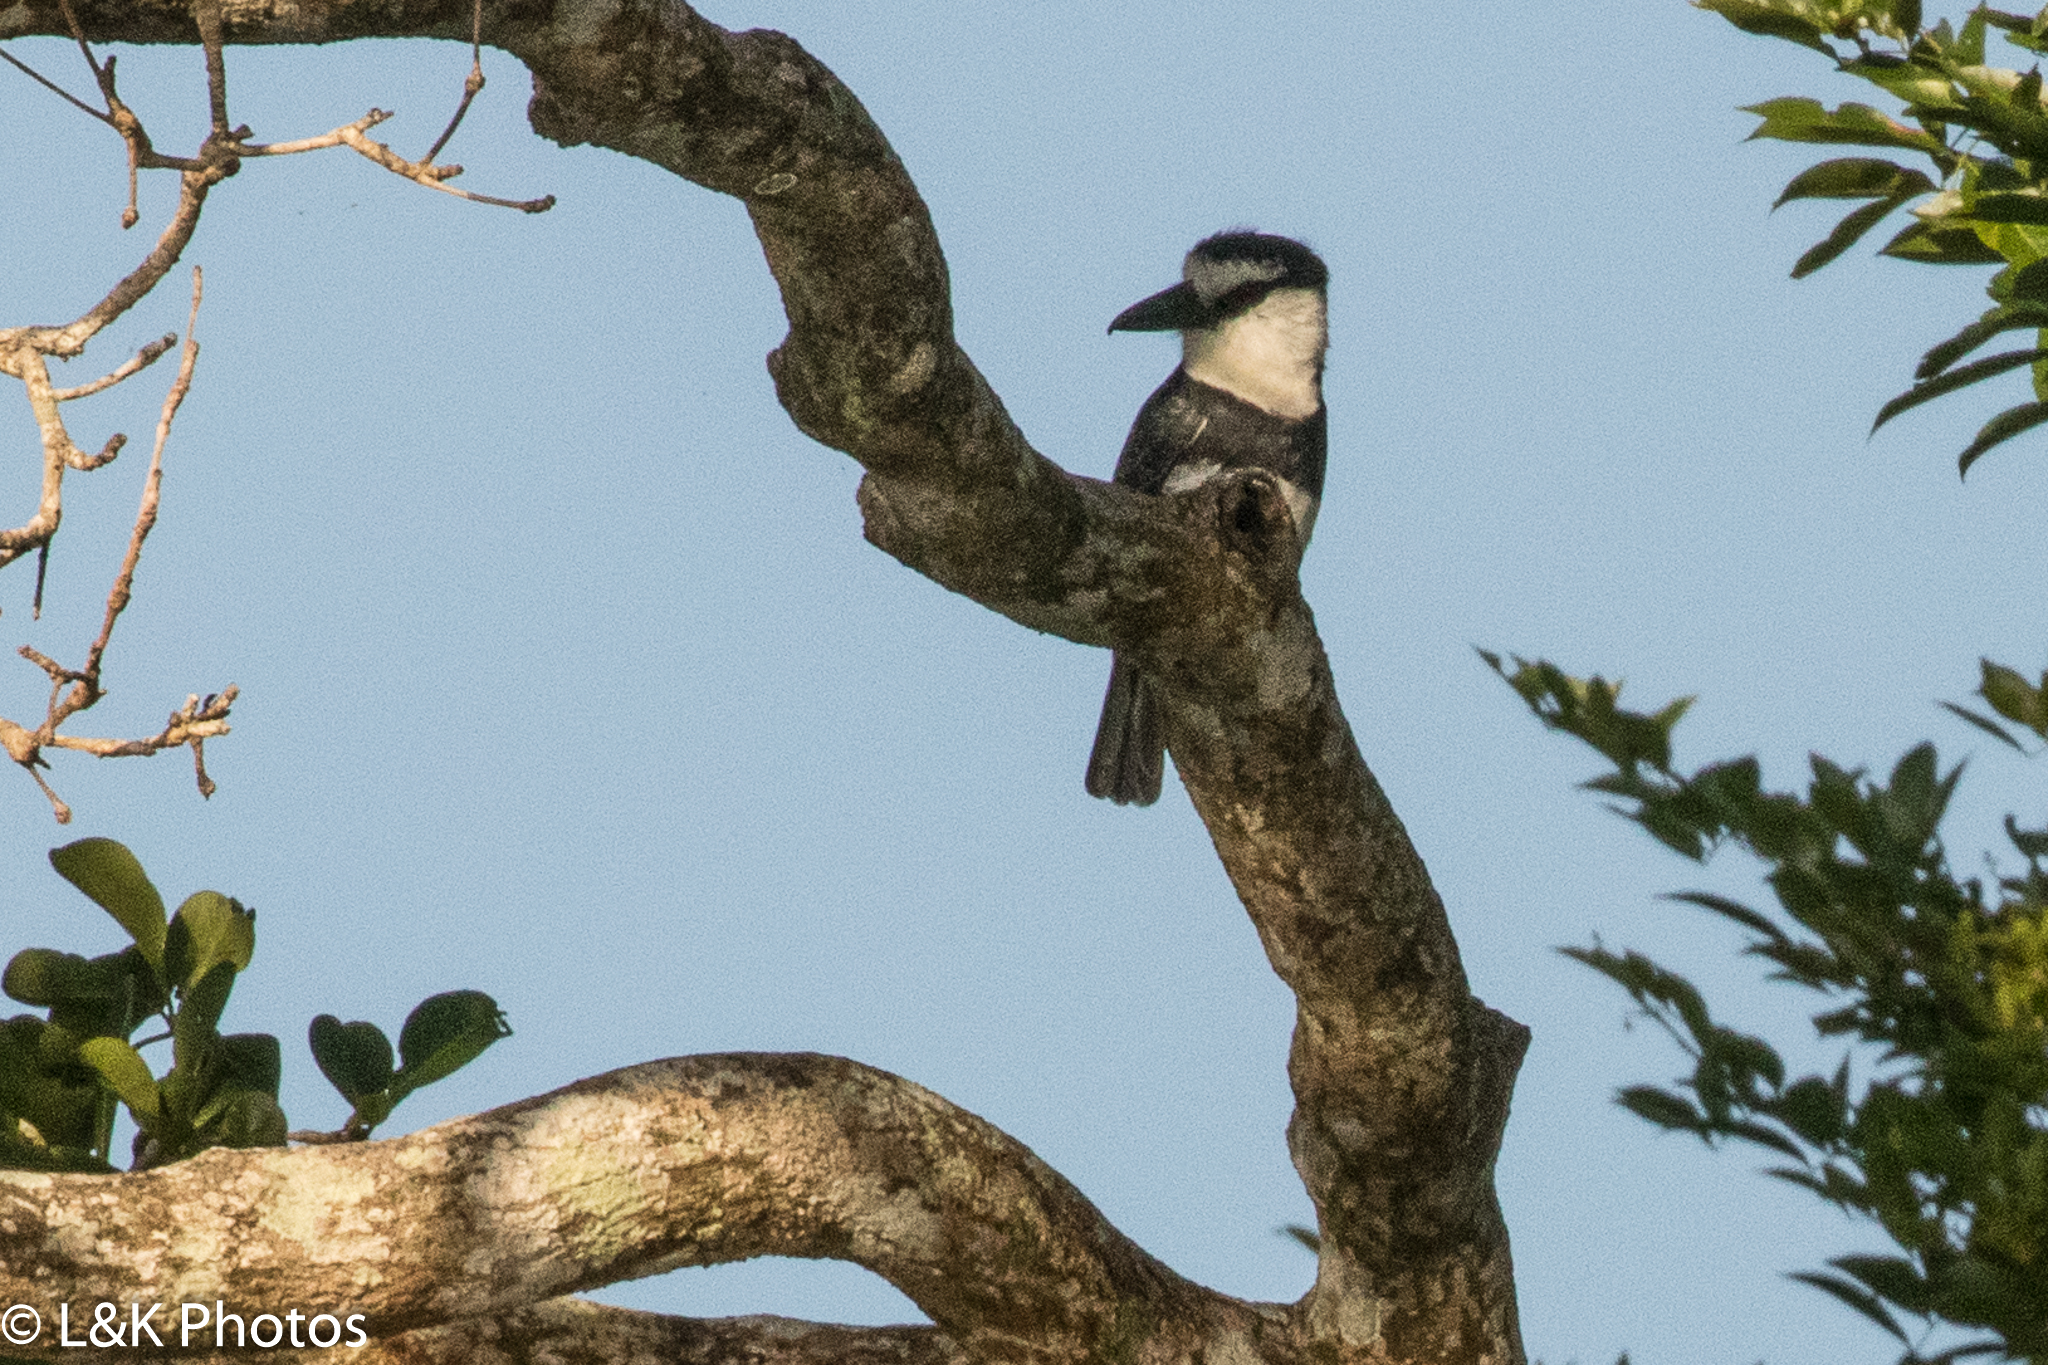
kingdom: Animalia
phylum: Chordata
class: Aves
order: Piciformes
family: Bucconidae
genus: Notharchus
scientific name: Notharchus hyperrhynchus
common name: White-necked puffbird
